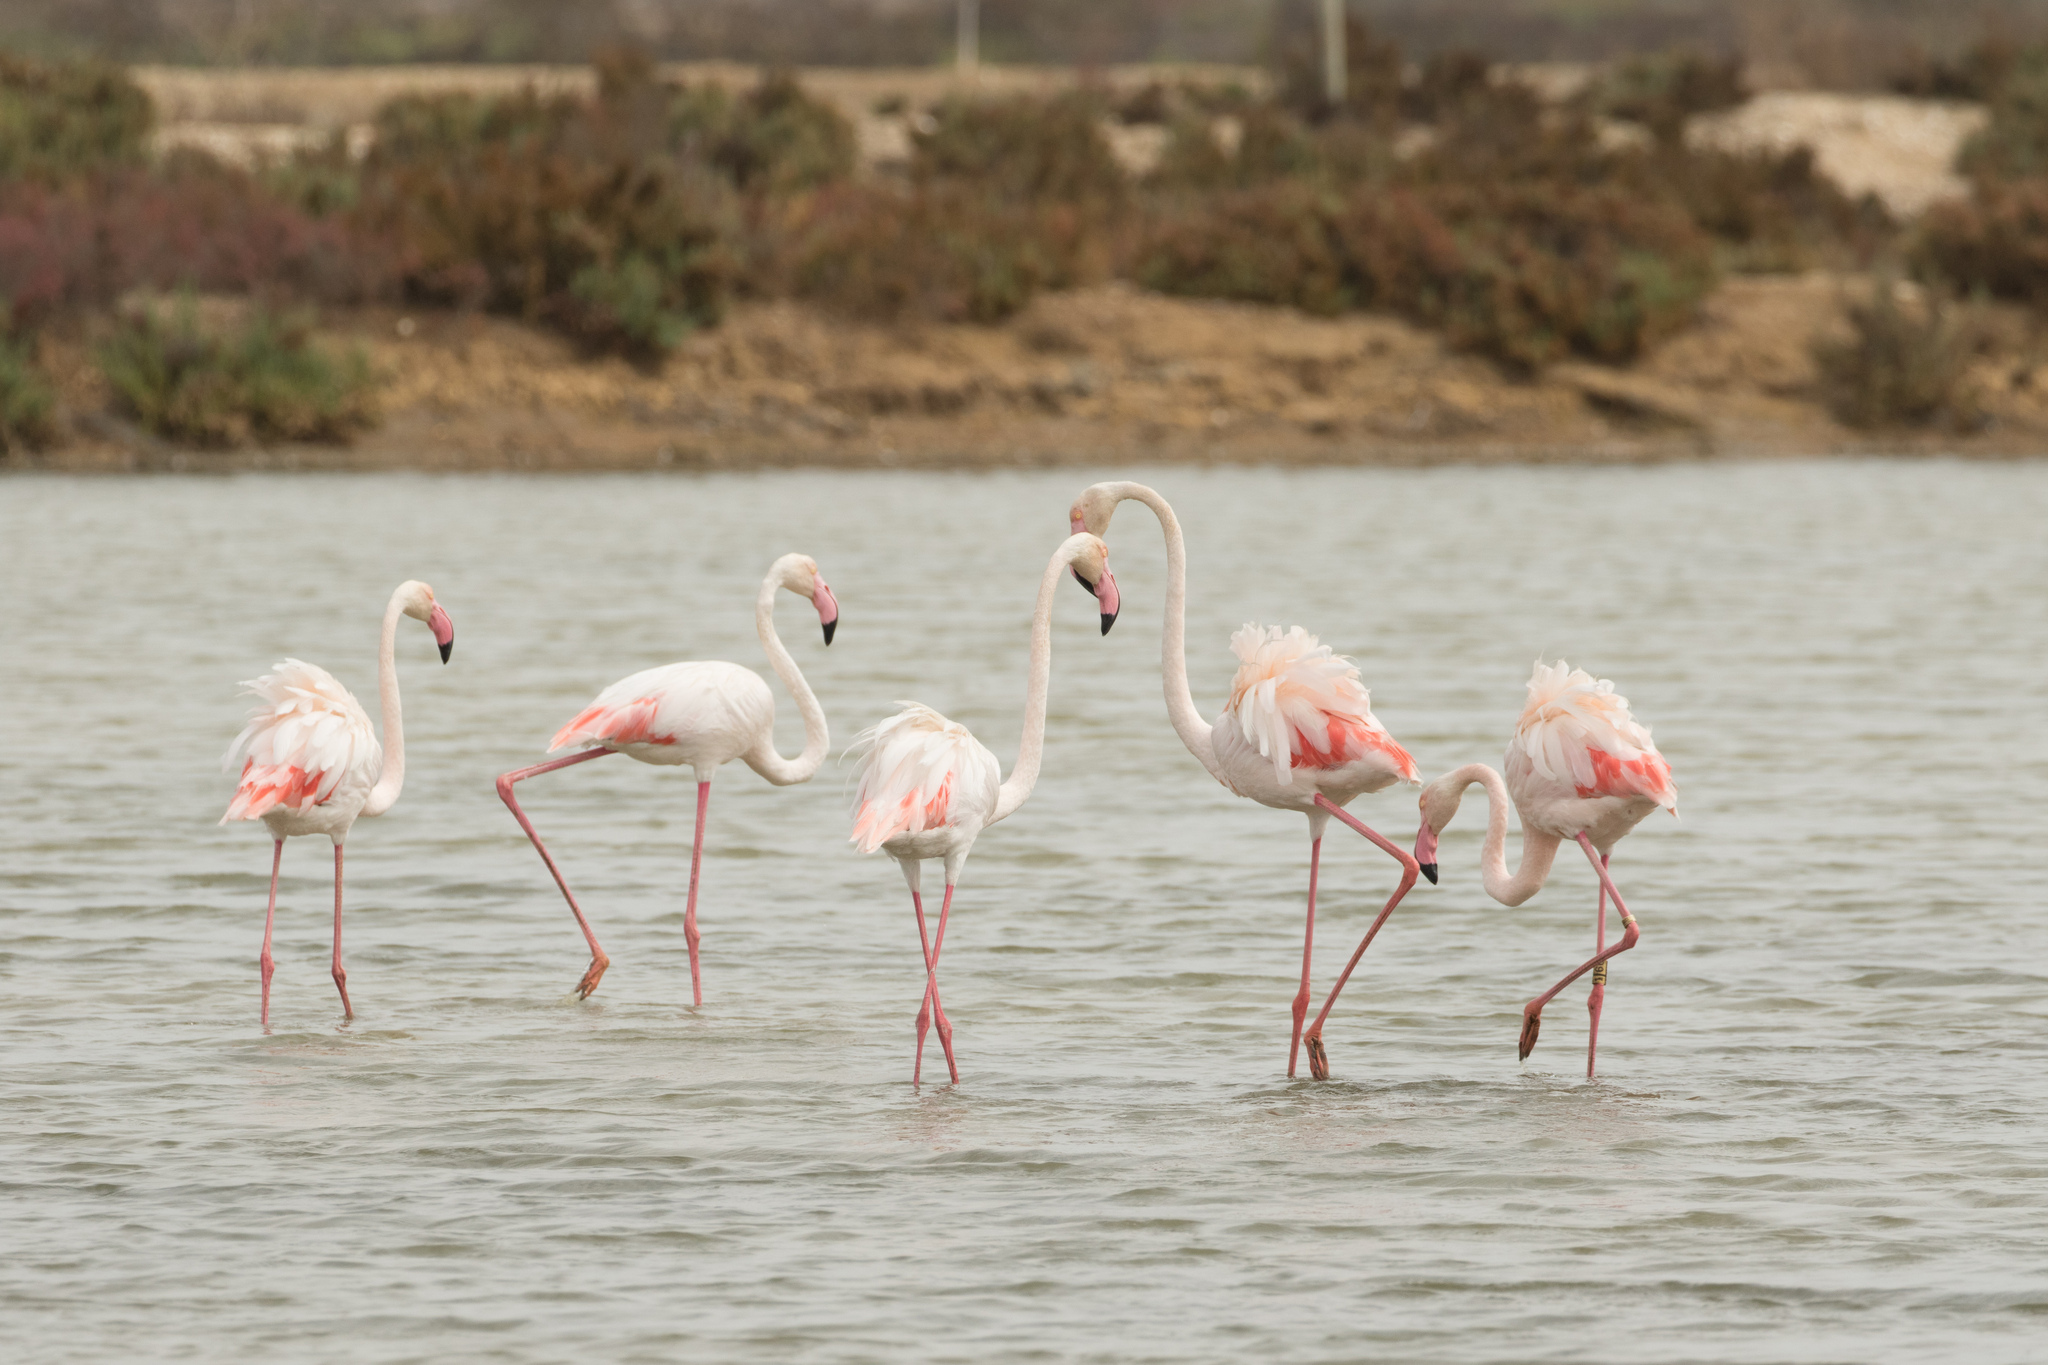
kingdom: Animalia
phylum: Chordata
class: Aves
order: Phoenicopteriformes
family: Phoenicopteridae
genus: Phoenicopterus
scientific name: Phoenicopterus roseus
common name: Greater flamingo
